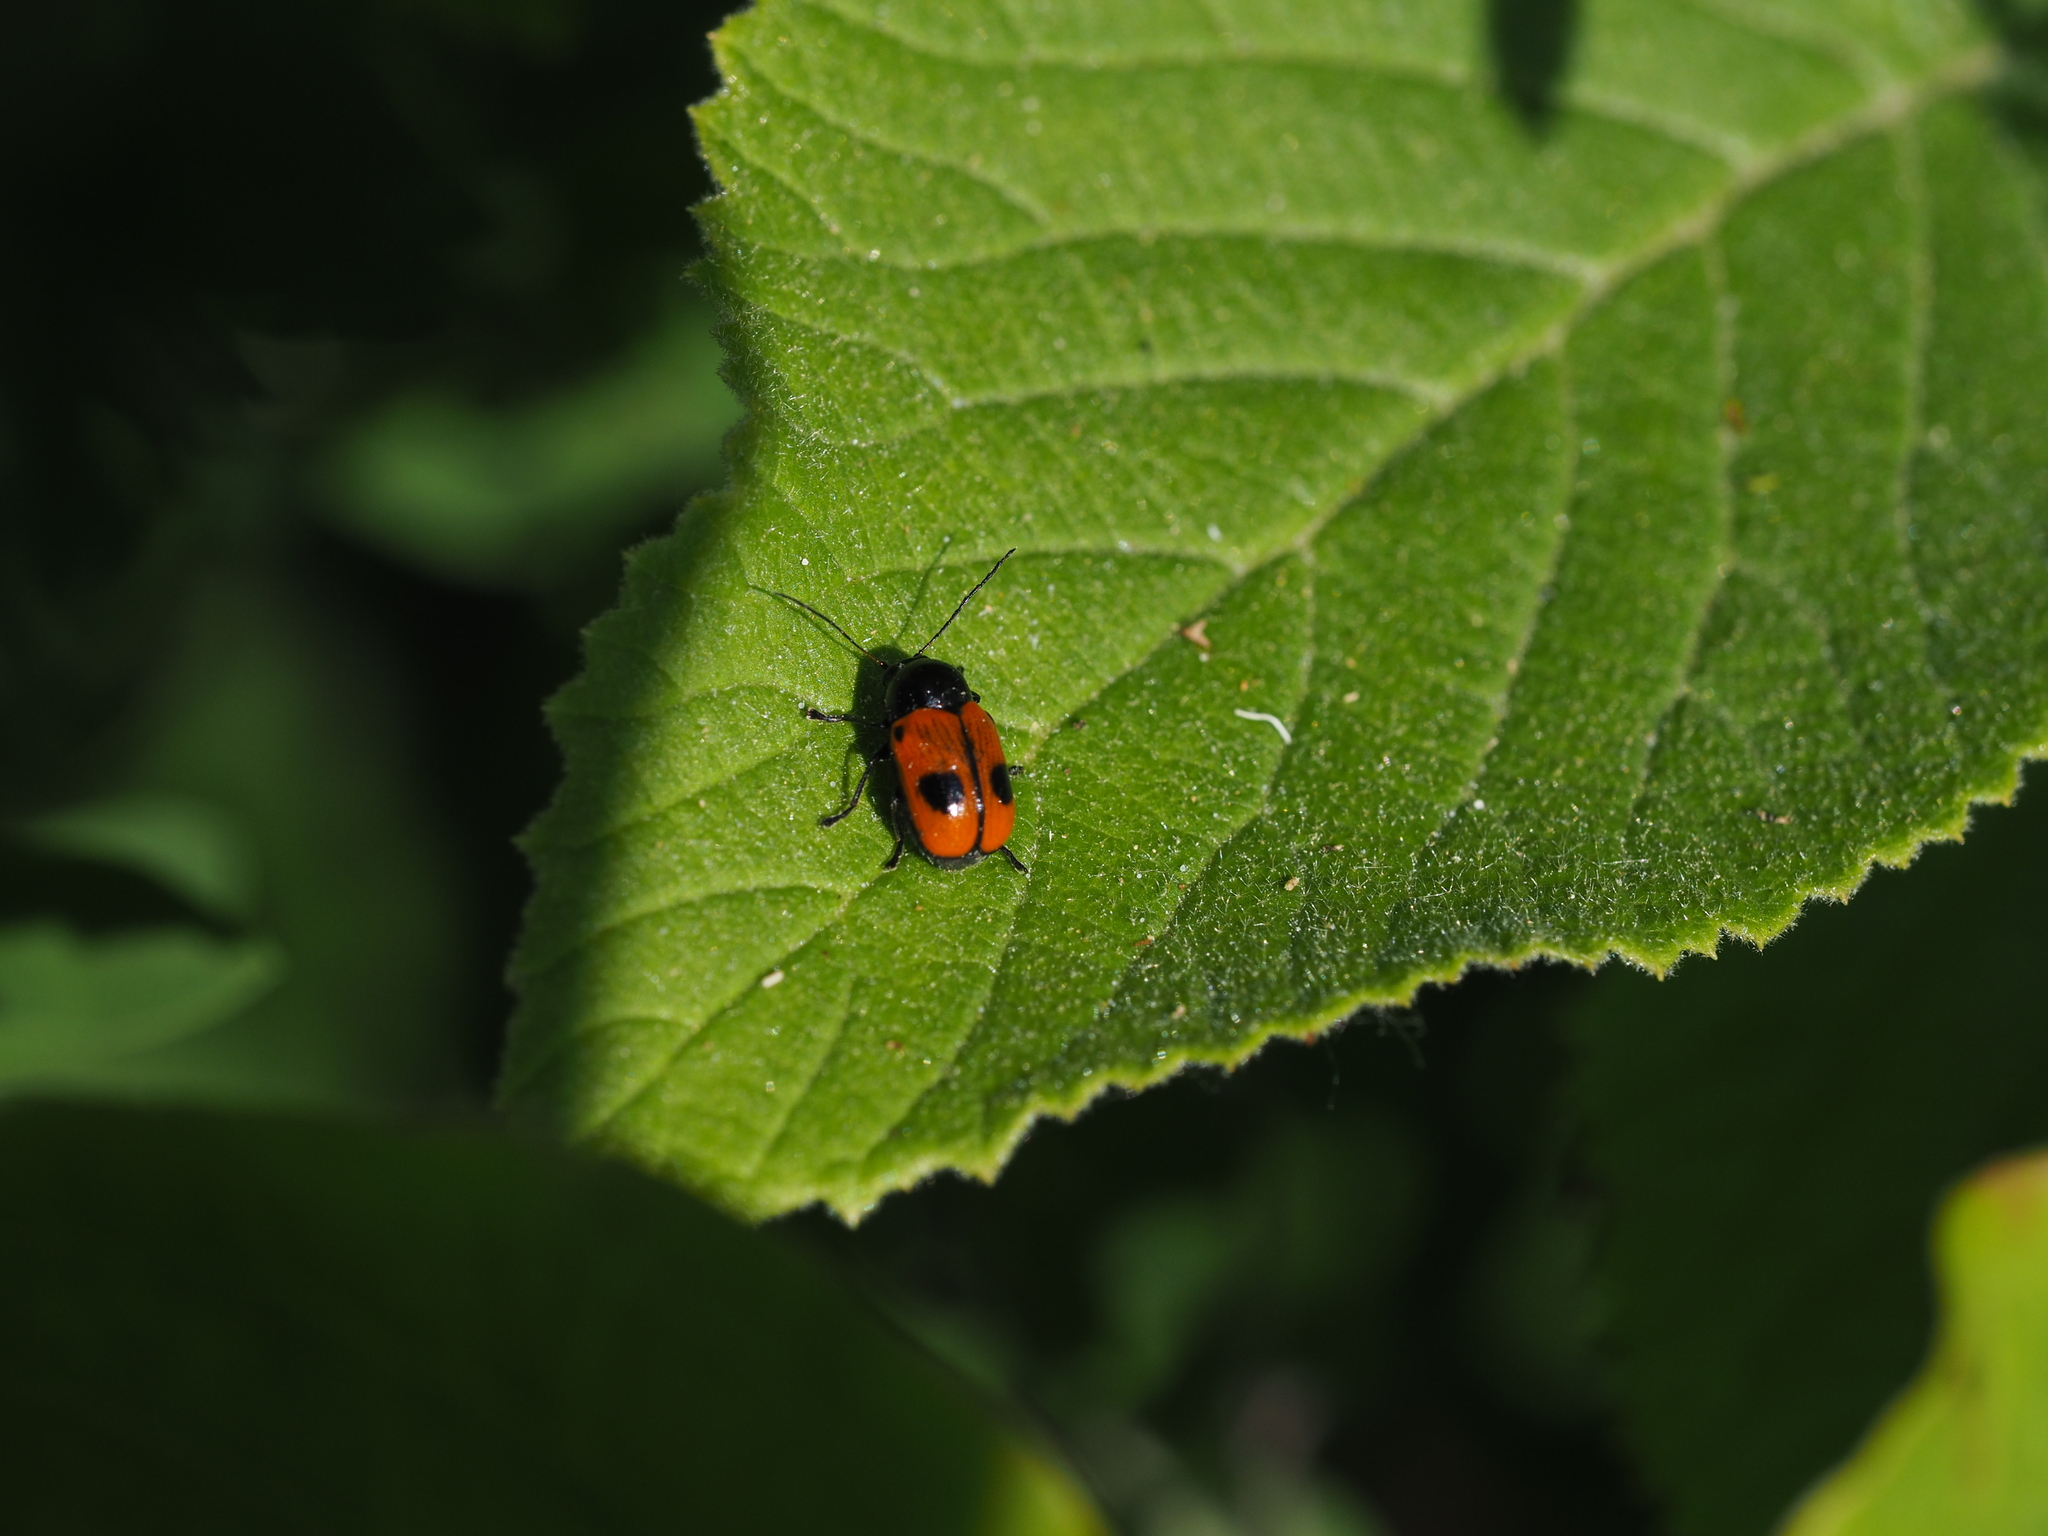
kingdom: Animalia
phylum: Arthropoda
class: Insecta
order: Coleoptera
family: Chrysomelidae
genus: Chiridopsis
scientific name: Chiridopsis bipunctata
